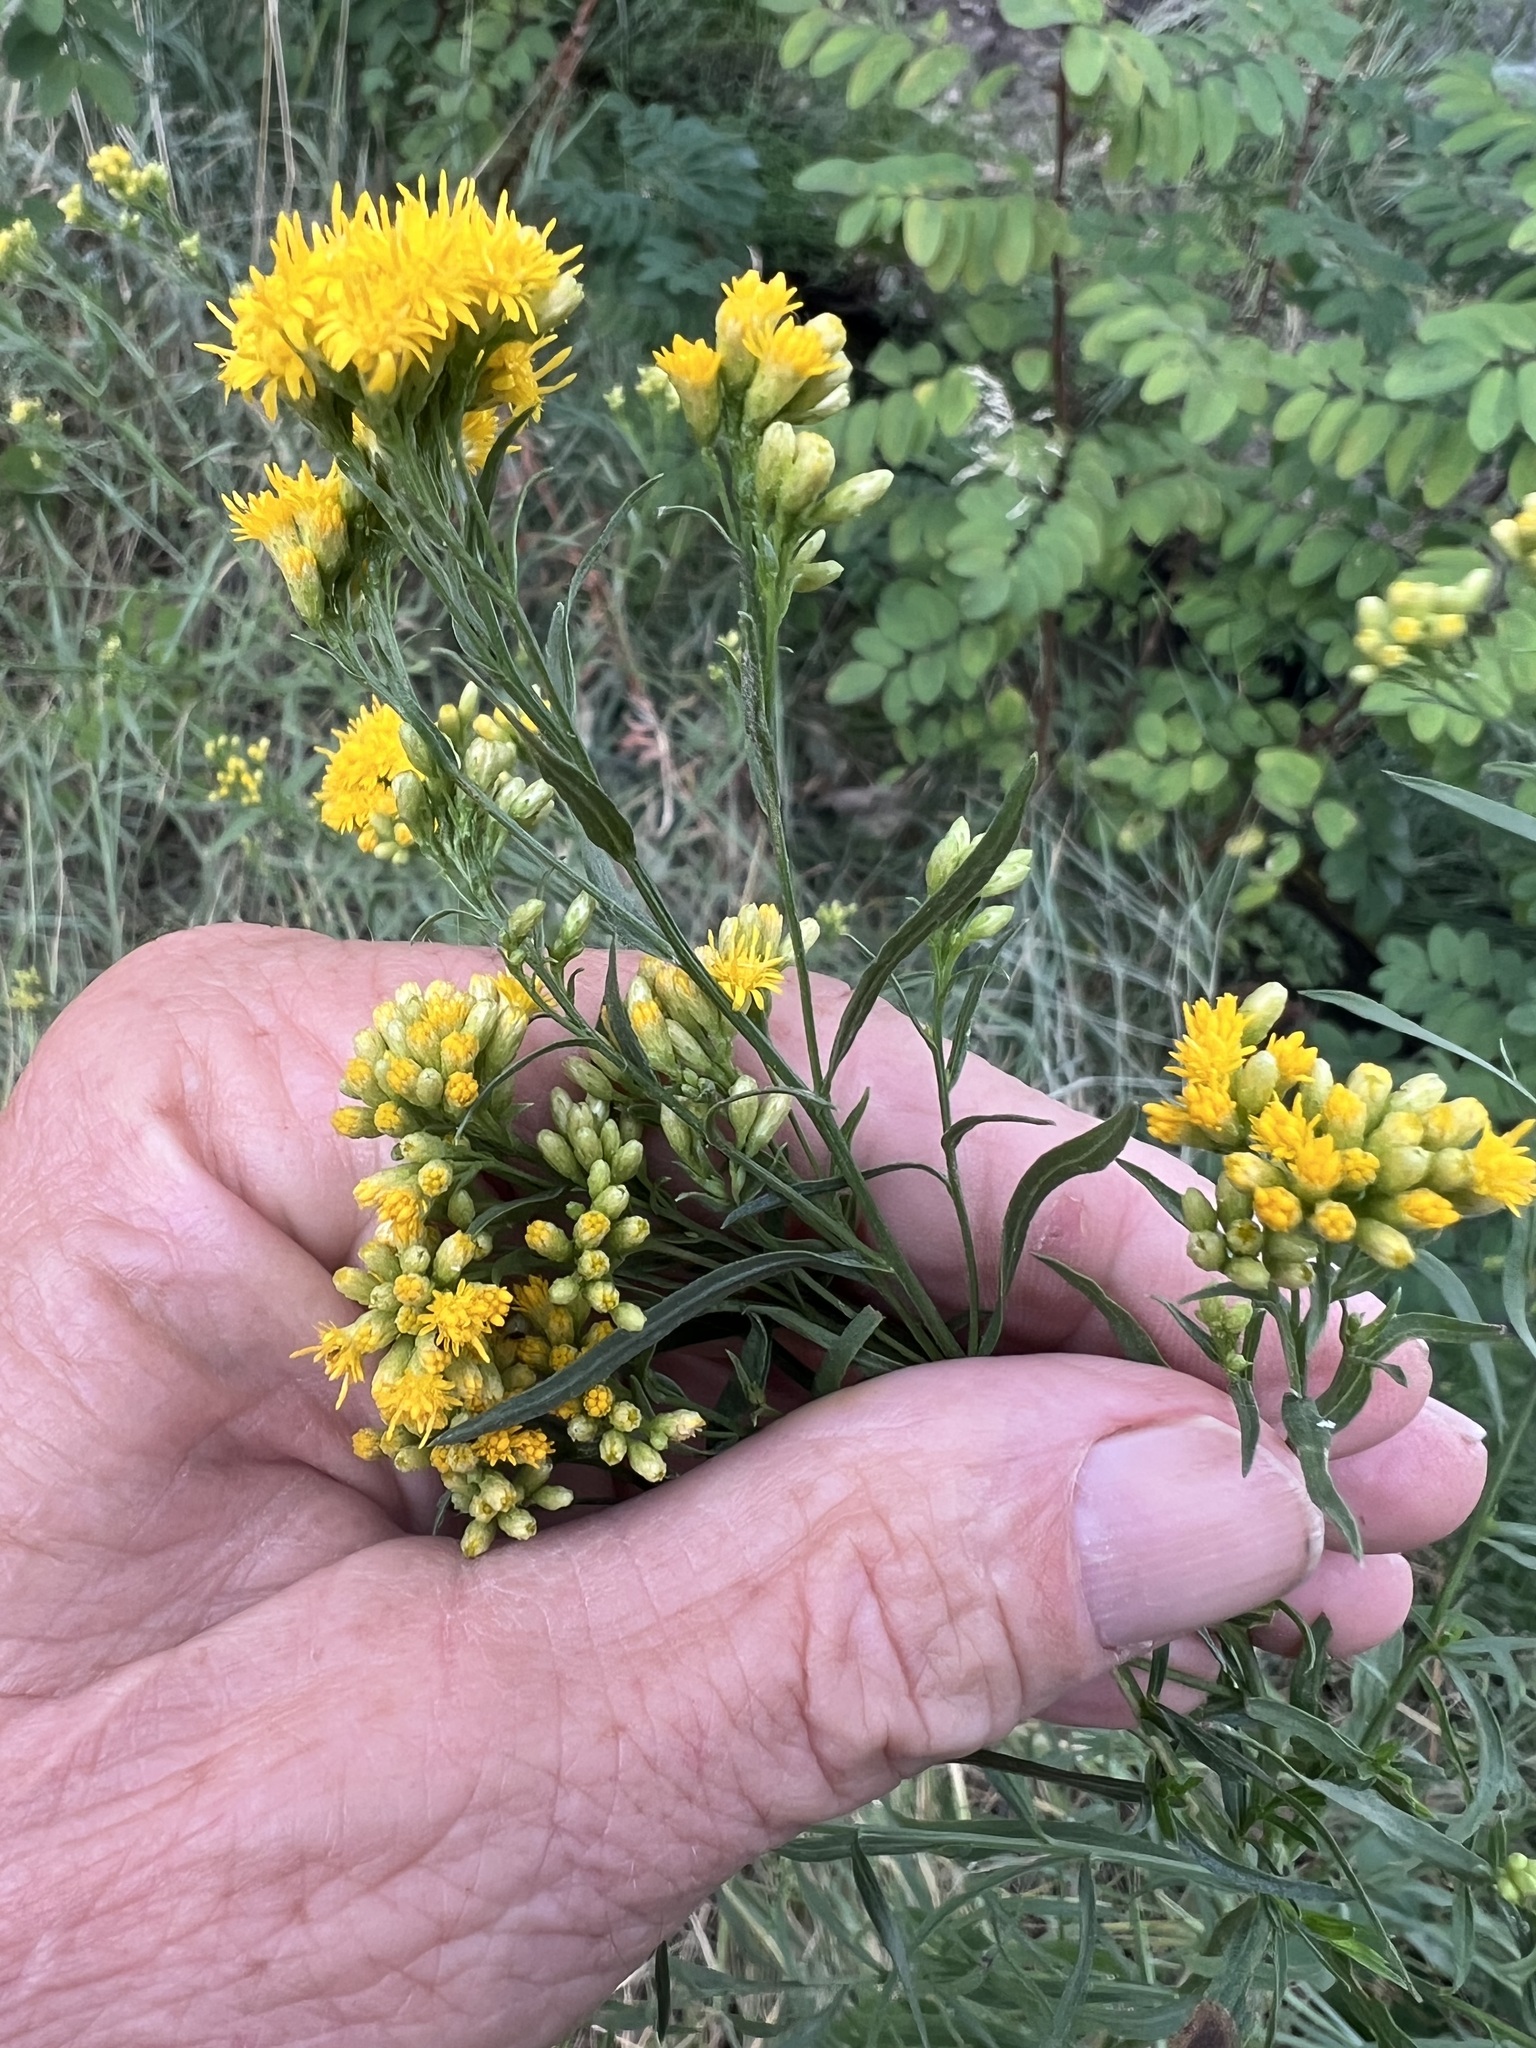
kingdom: Plantae
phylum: Tracheophyta
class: Magnoliopsida
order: Asterales
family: Asteraceae
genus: Euthamia
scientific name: Euthamia occidentalis
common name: Western goldentop
